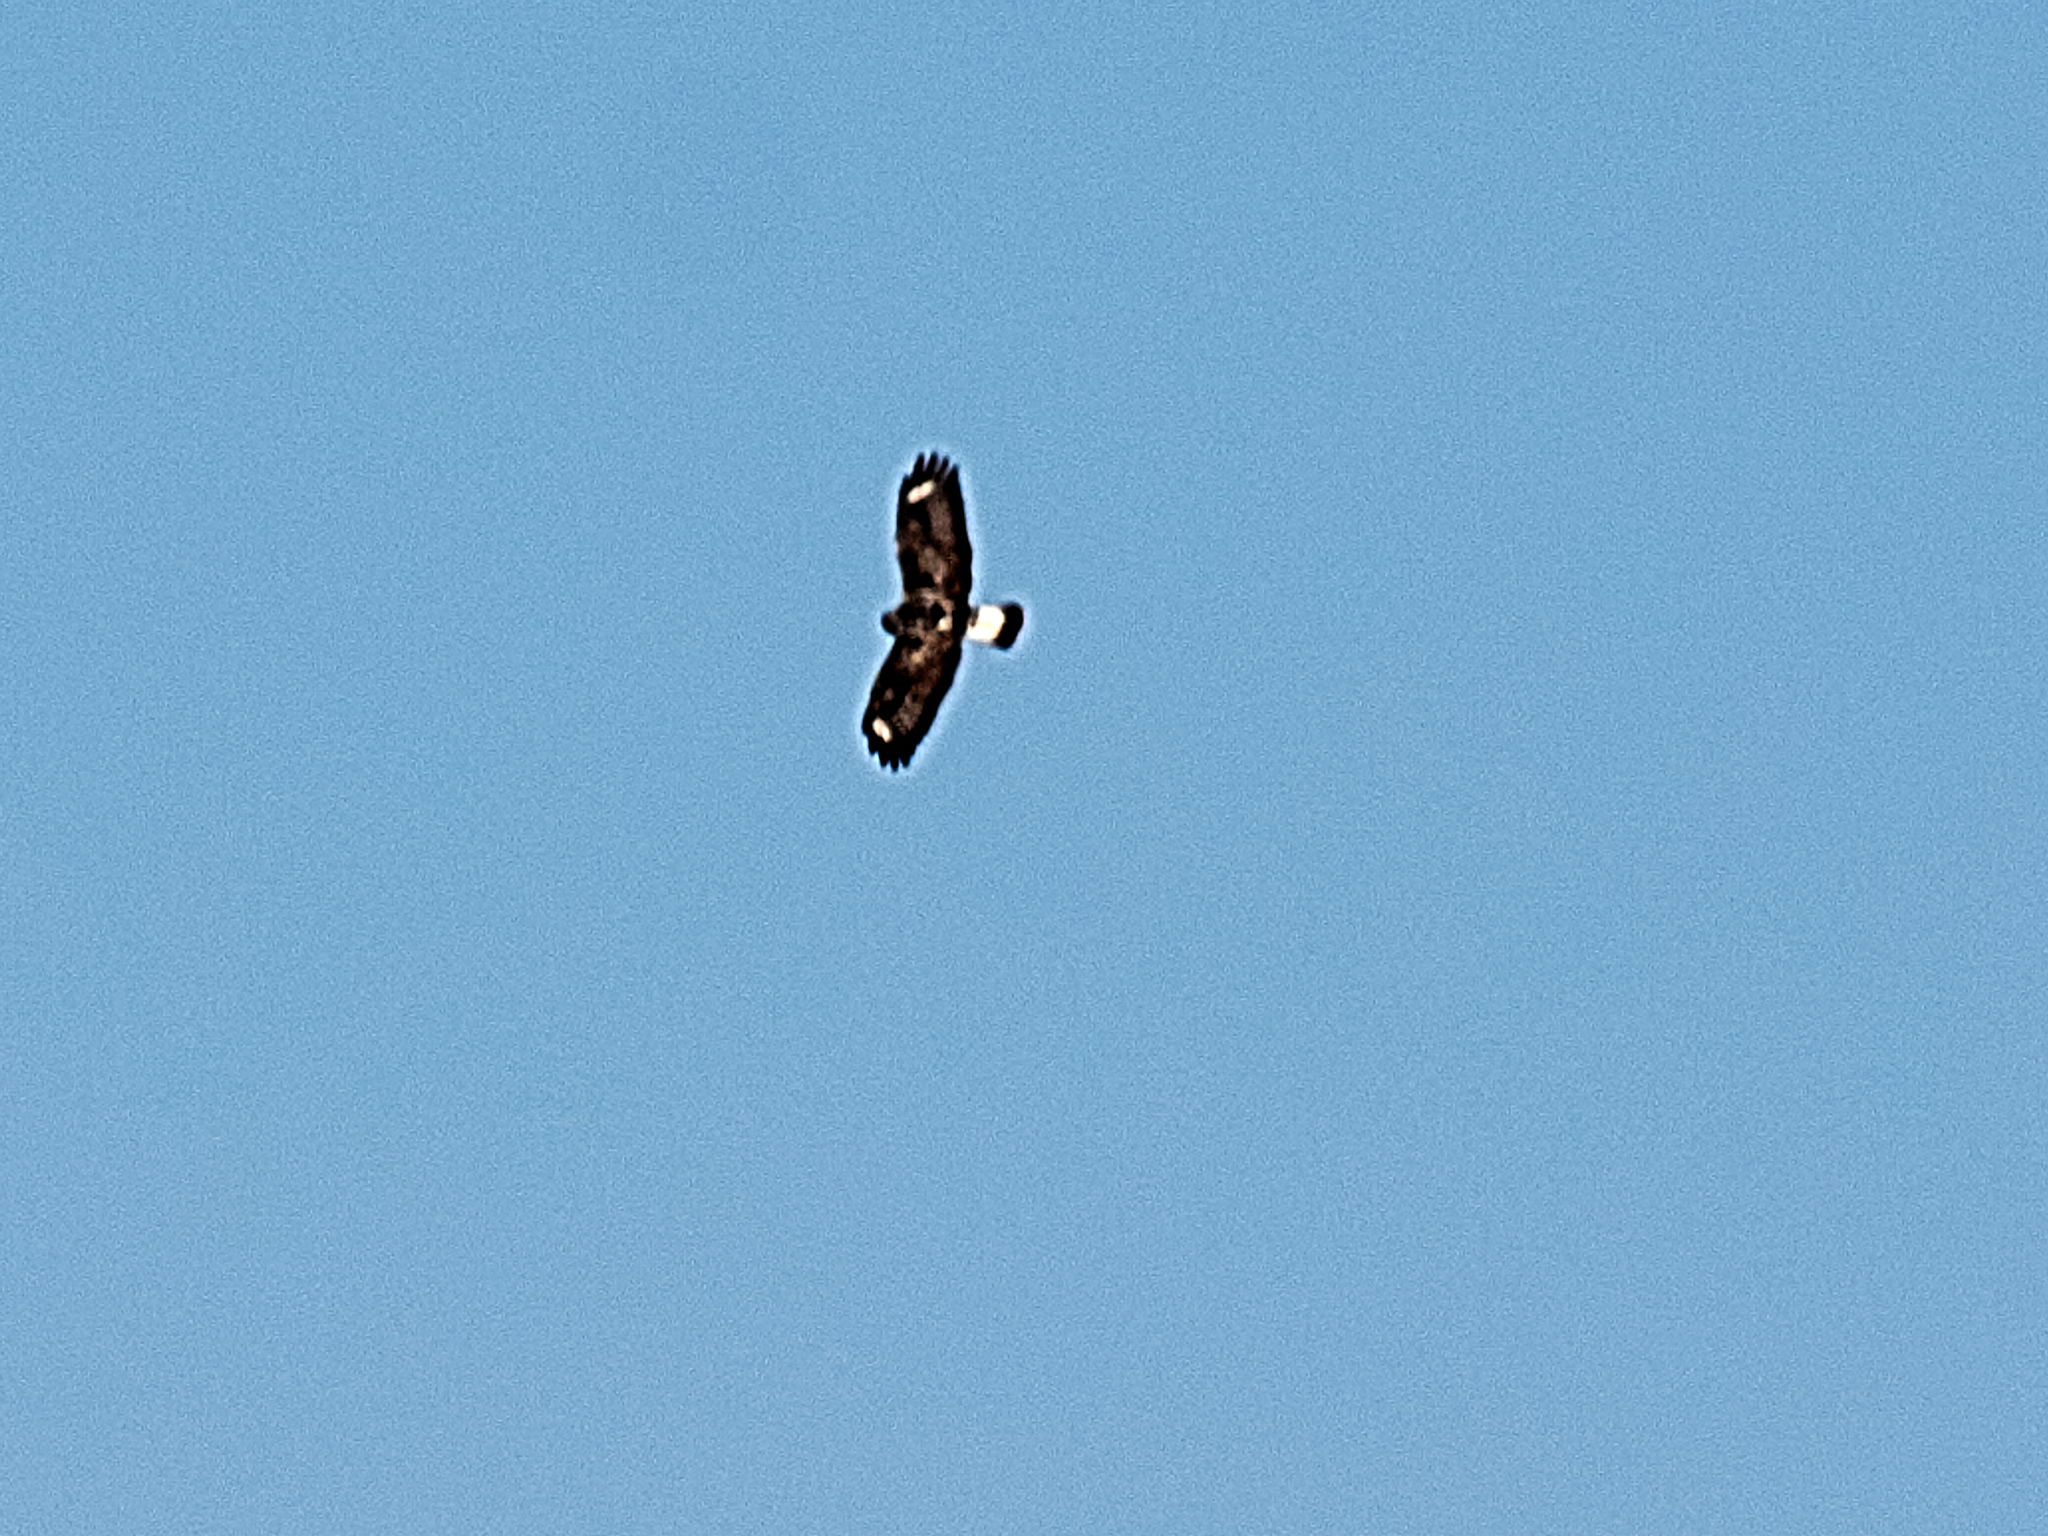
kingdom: Animalia
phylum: Chordata
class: Aves
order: Accipitriformes
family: Accipitridae
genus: Buteo
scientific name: Buteo lagopus
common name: Rough-legged buzzard
